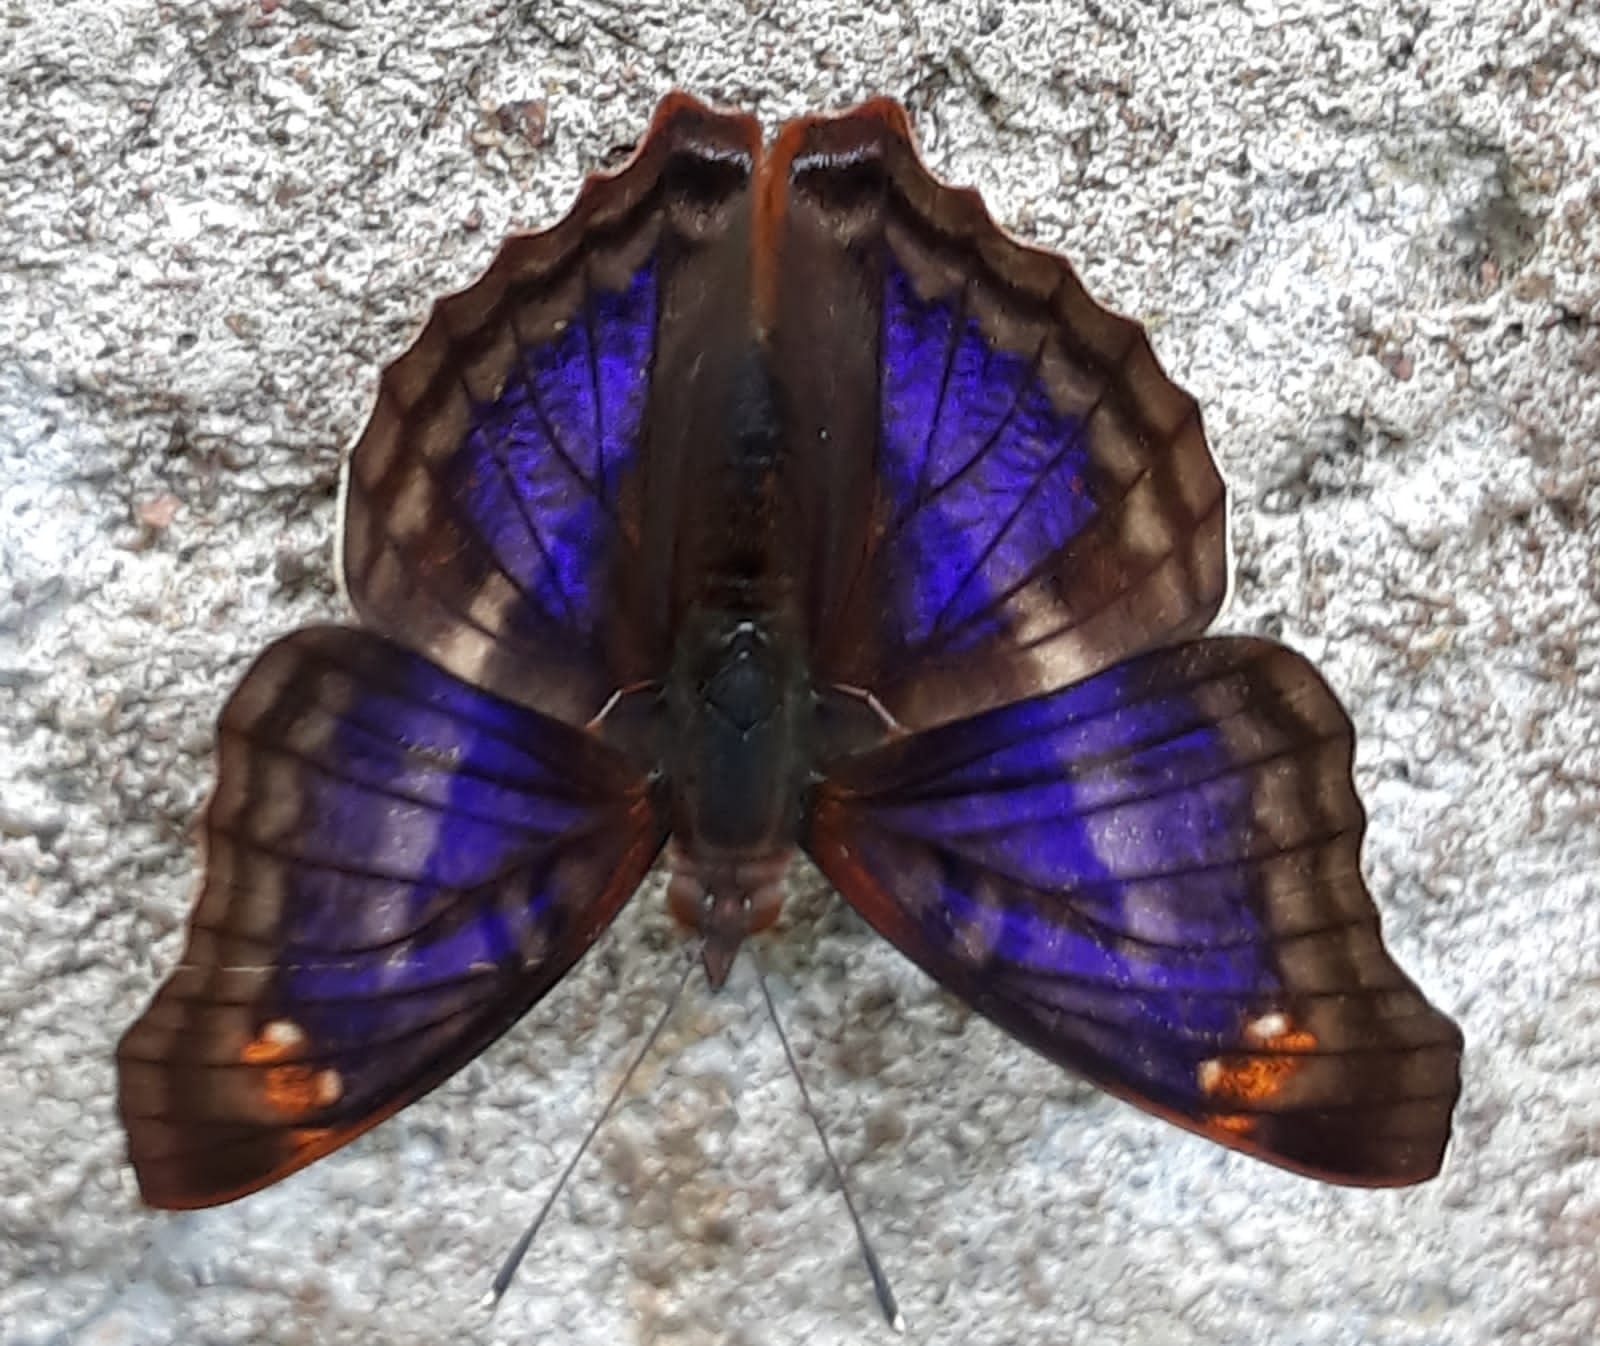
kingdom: Animalia
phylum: Arthropoda
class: Insecta
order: Lepidoptera
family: Nymphalidae
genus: Doxocopa
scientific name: Doxocopa pavonii
